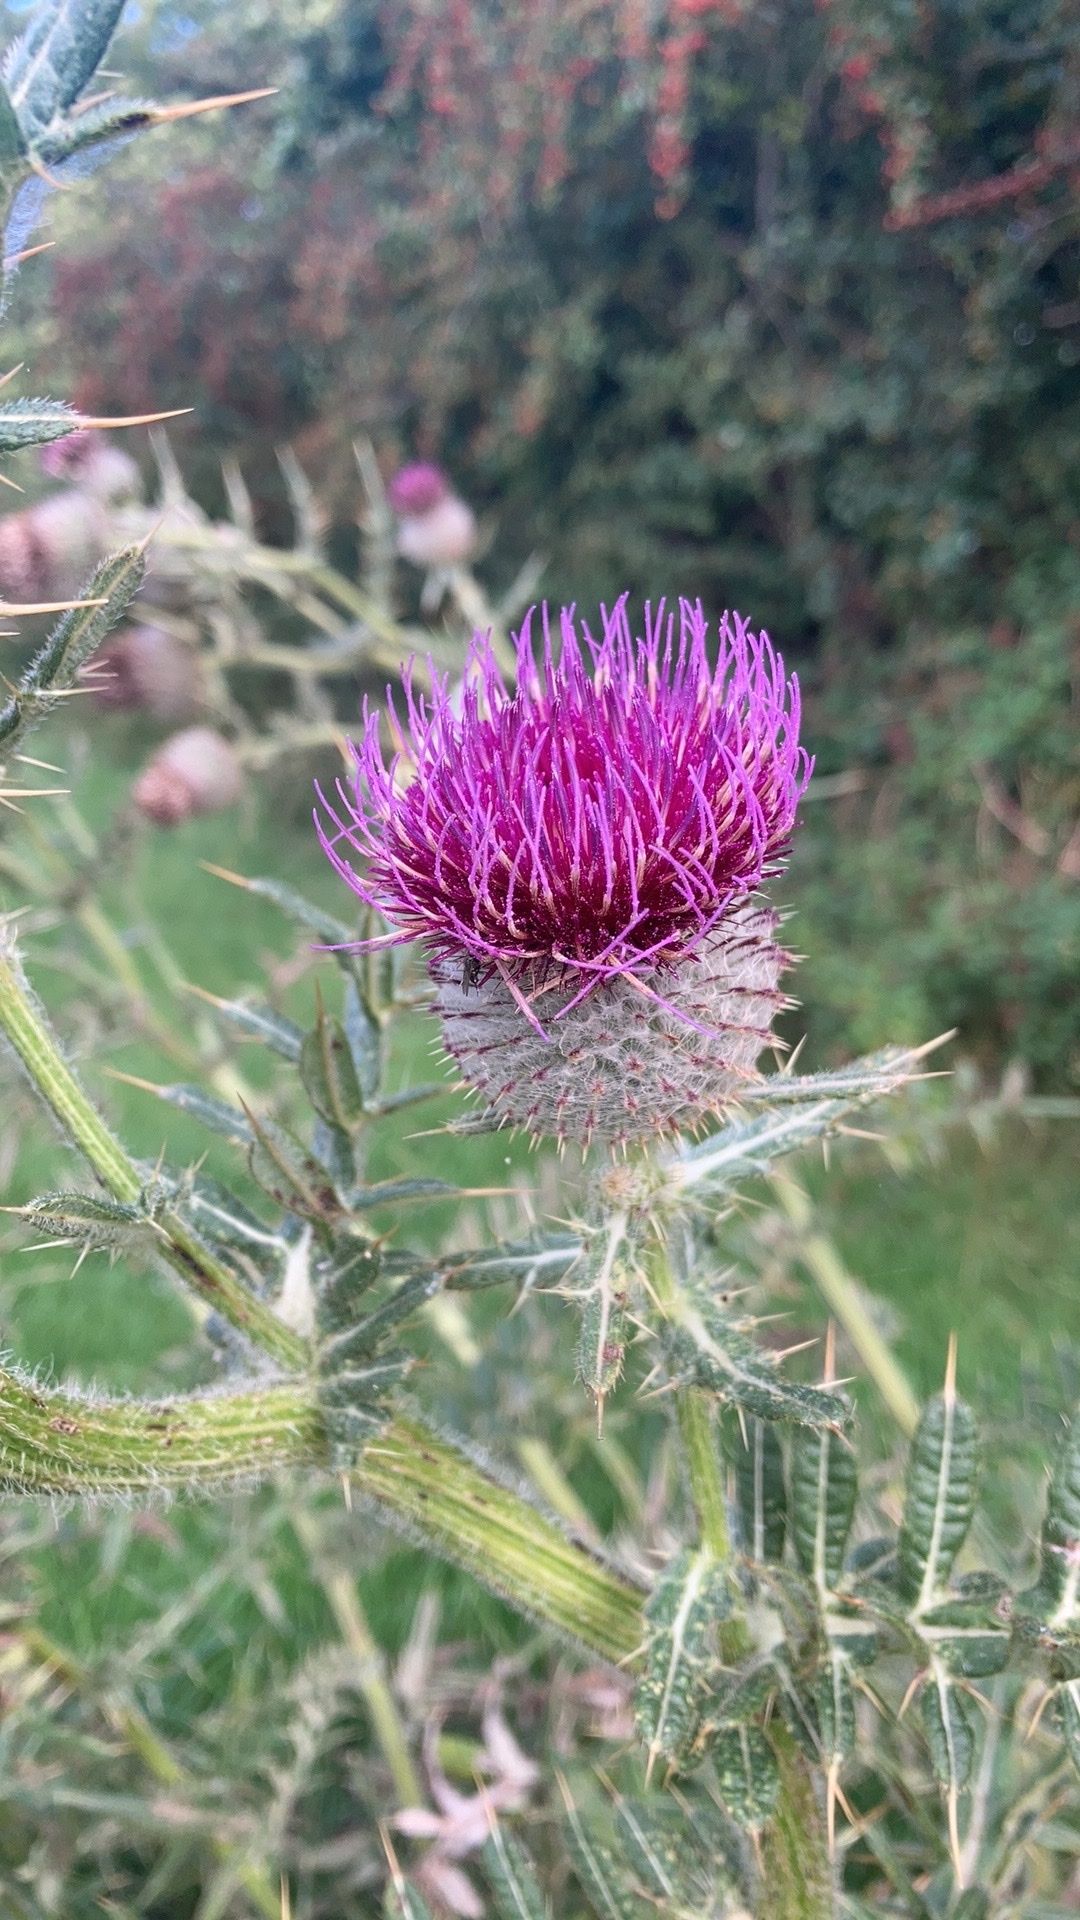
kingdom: Plantae
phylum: Tracheophyta
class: Magnoliopsida
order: Asterales
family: Asteraceae
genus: Lophiolepis
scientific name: Lophiolepis eriophora
